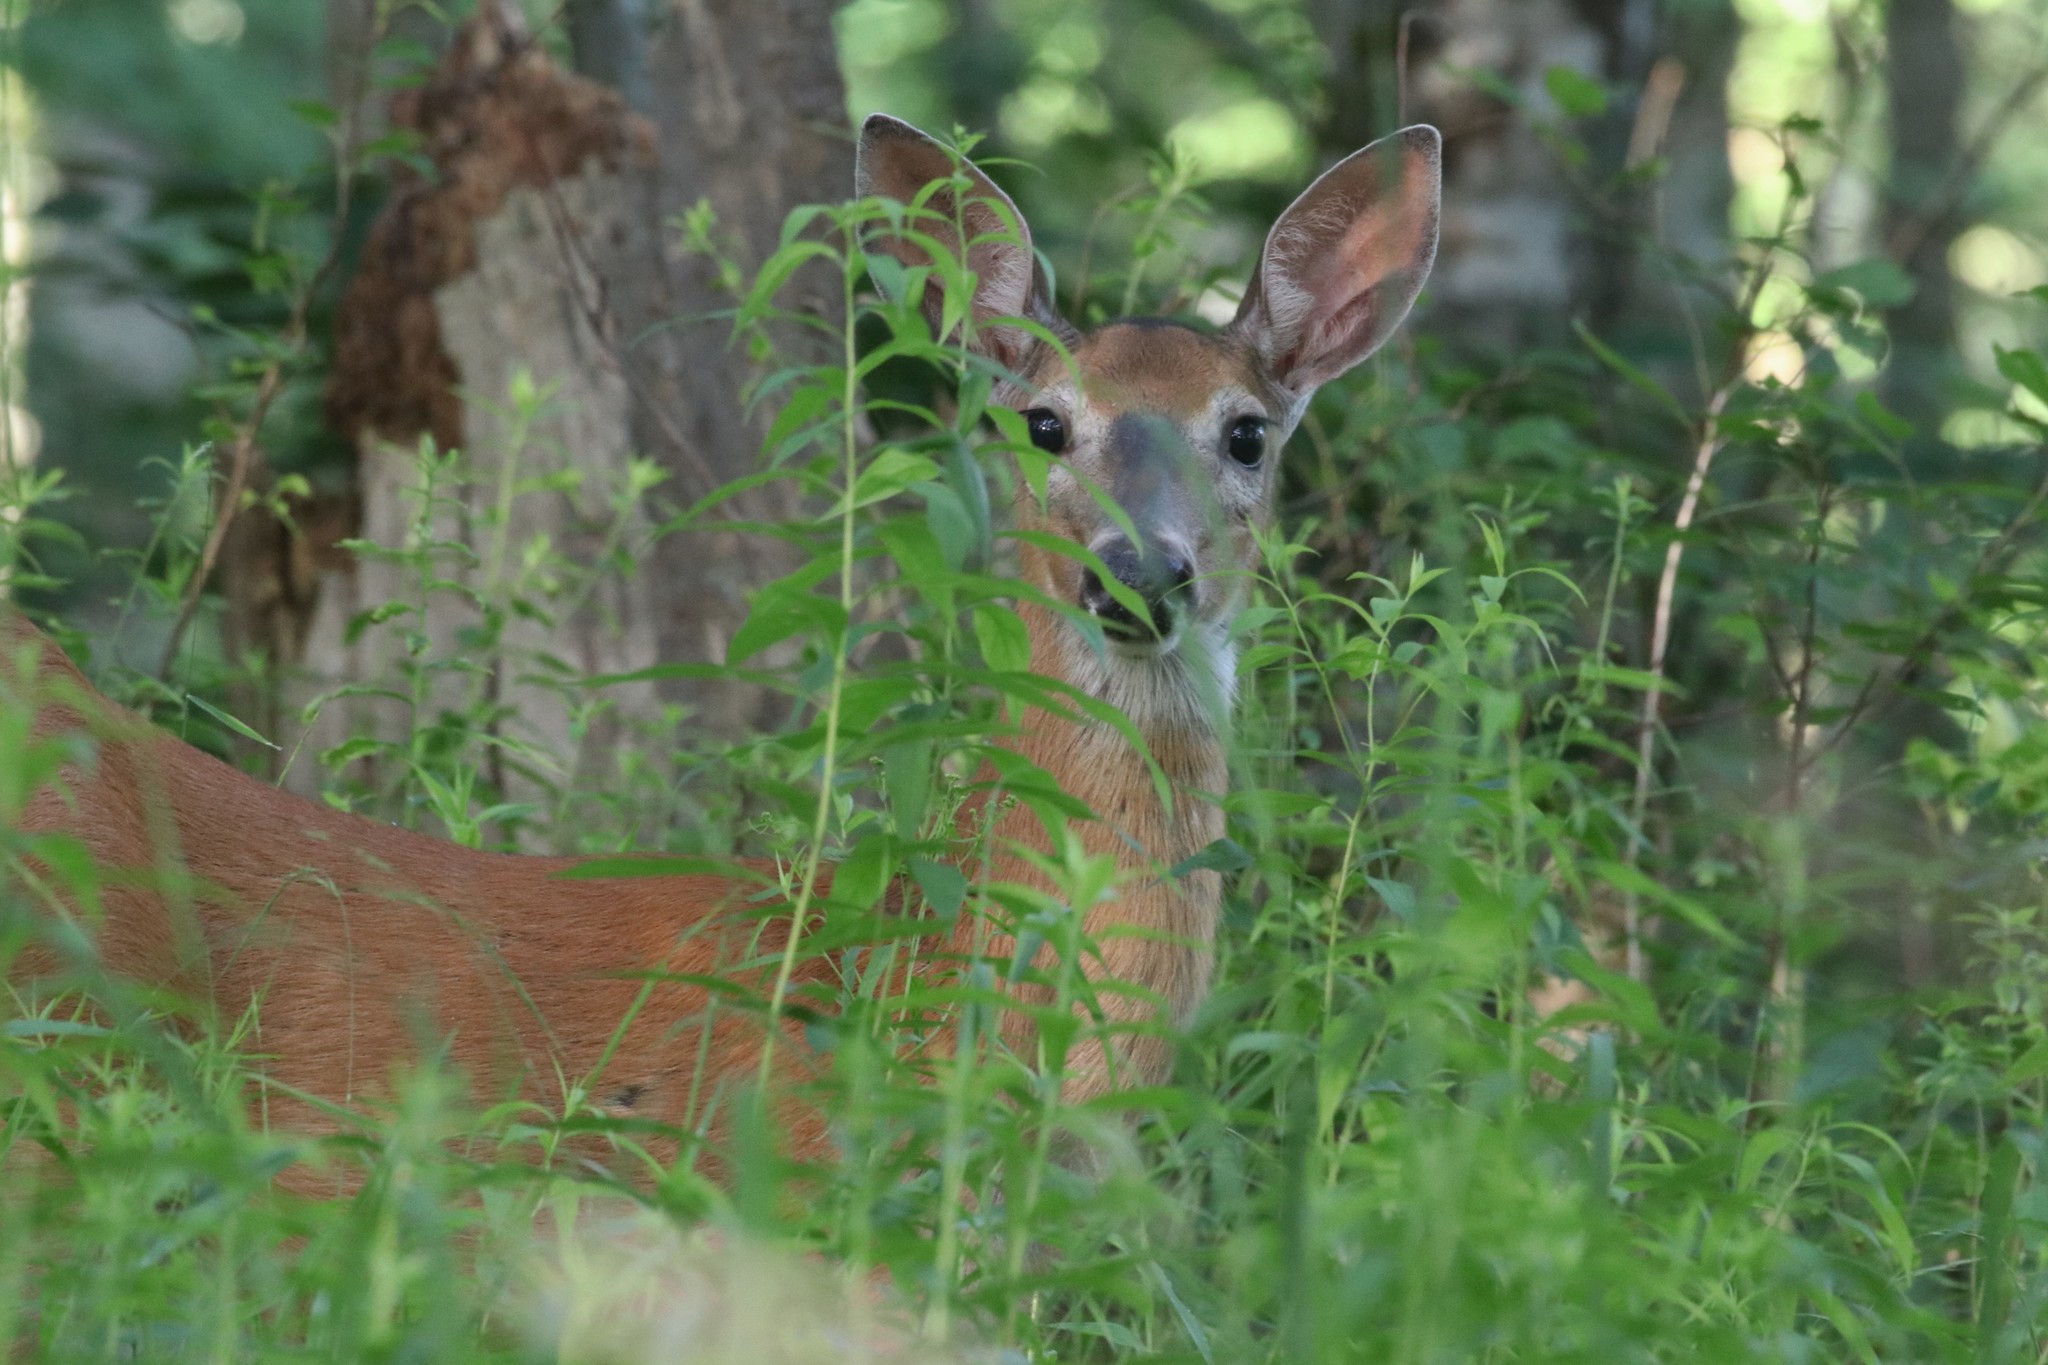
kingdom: Animalia
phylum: Chordata
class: Mammalia
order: Artiodactyla
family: Cervidae
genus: Odocoileus
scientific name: Odocoileus virginianus
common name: White-tailed deer
